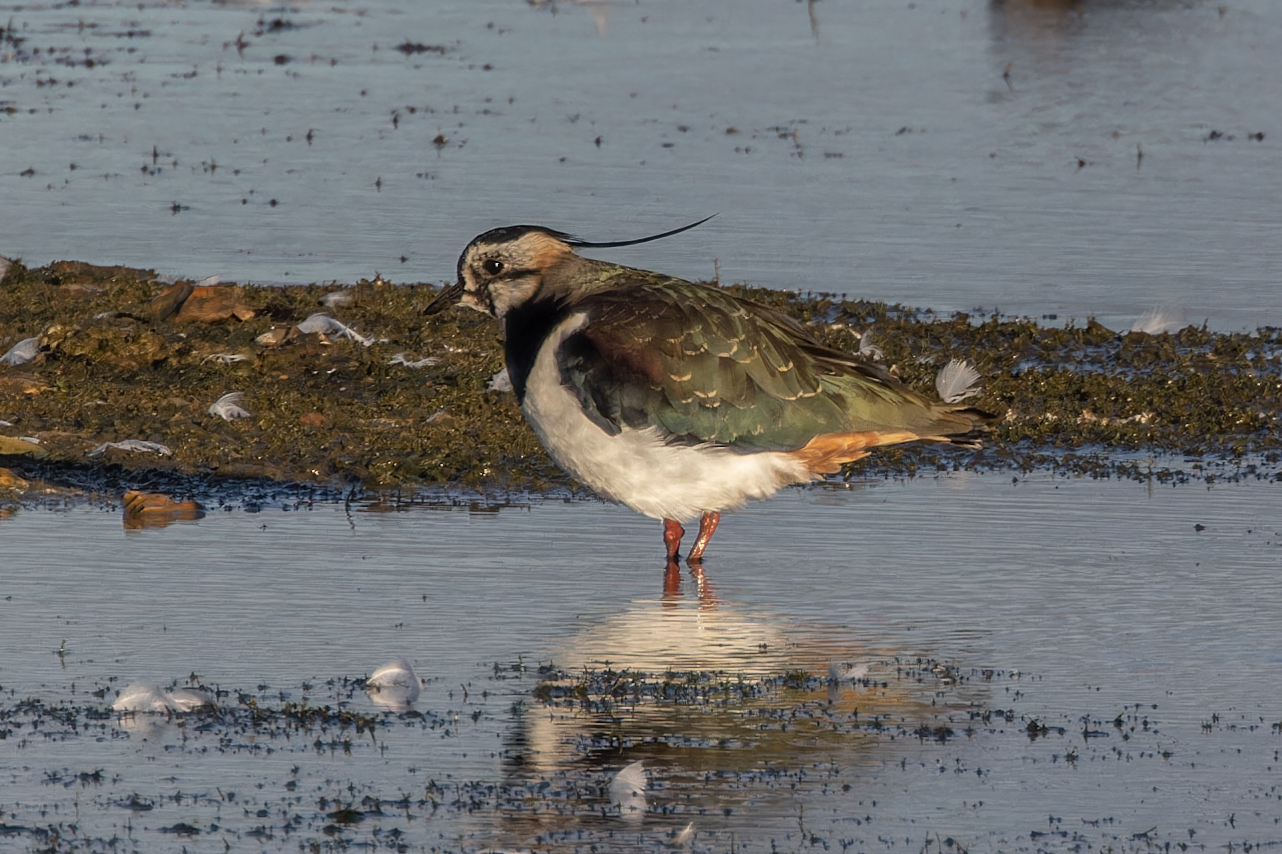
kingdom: Animalia
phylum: Chordata
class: Aves
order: Charadriiformes
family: Charadriidae
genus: Vanellus
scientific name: Vanellus vanellus
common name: Northern lapwing
